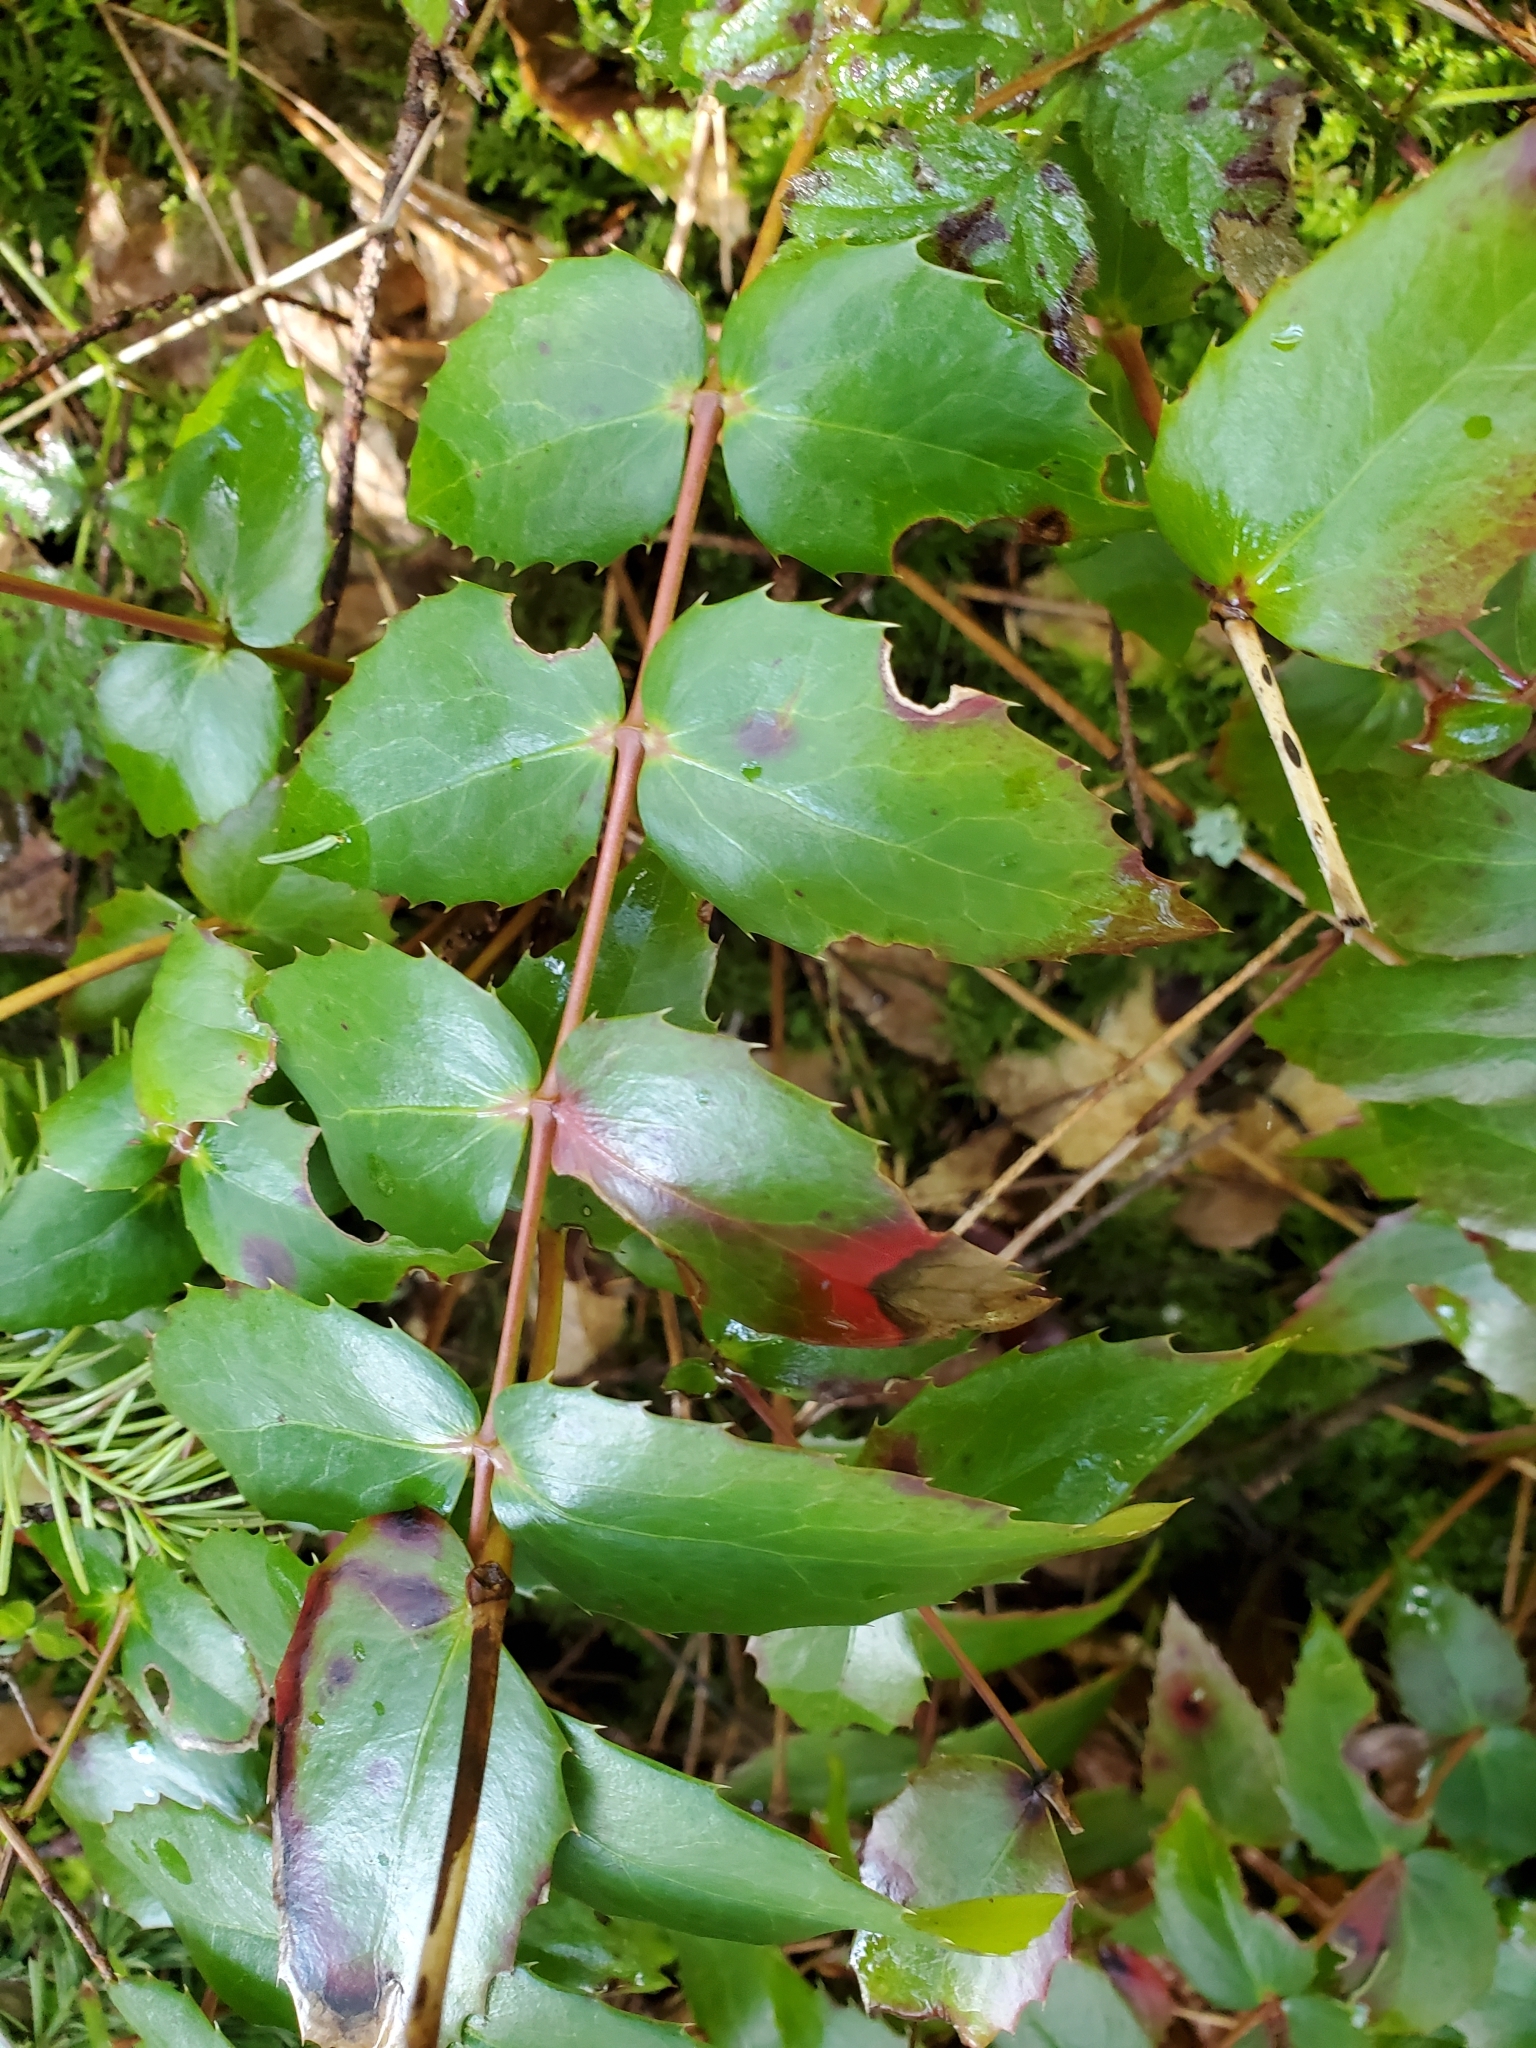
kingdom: Plantae
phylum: Tracheophyta
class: Magnoliopsida
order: Ranunculales
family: Berberidaceae
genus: Mahonia
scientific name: Mahonia nervosa
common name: Cascade oregon-grape
